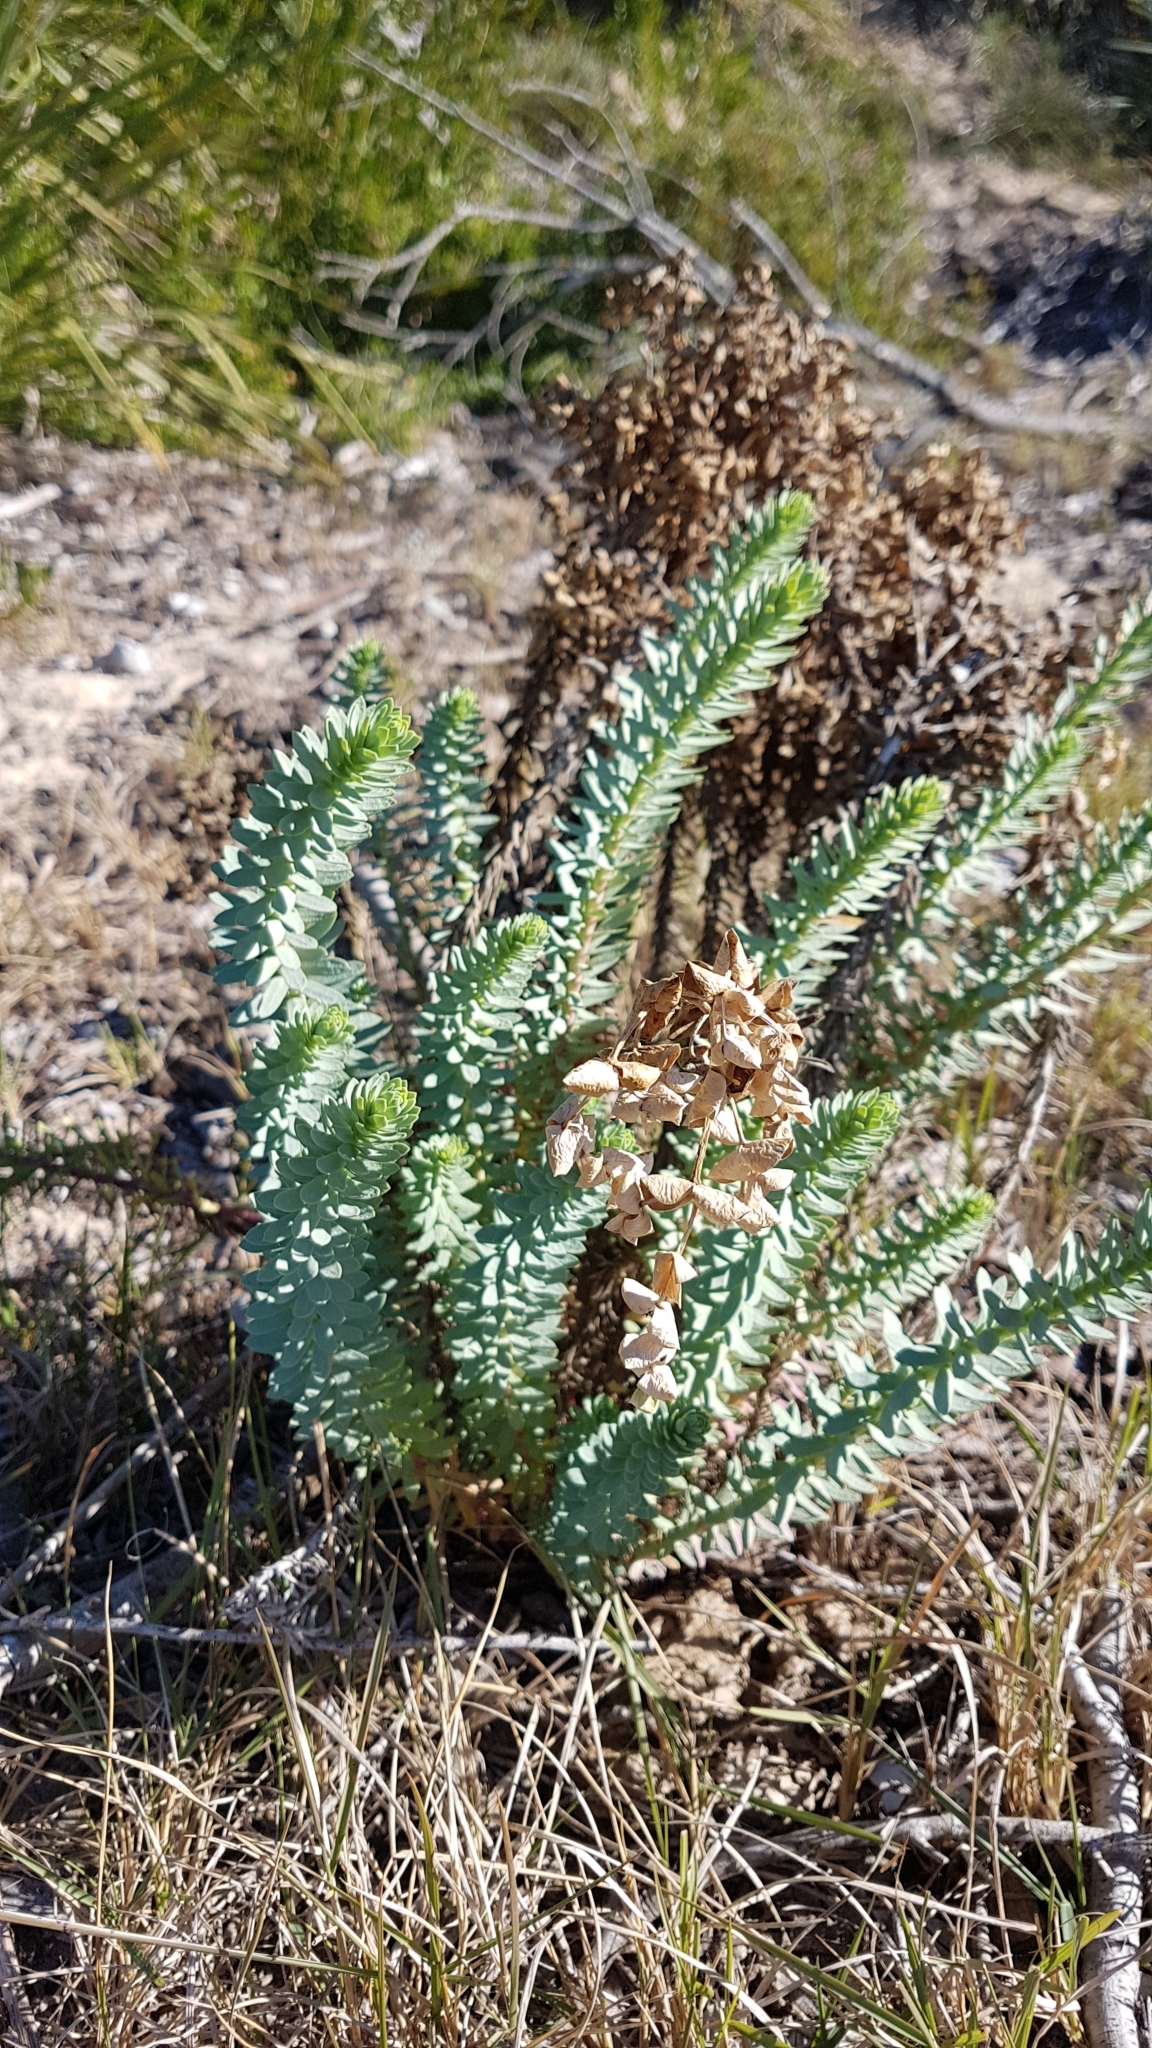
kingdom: Plantae
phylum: Tracheophyta
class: Magnoliopsida
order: Malpighiales
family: Euphorbiaceae
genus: Euphorbia
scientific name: Euphorbia paralias
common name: Sea spurge
